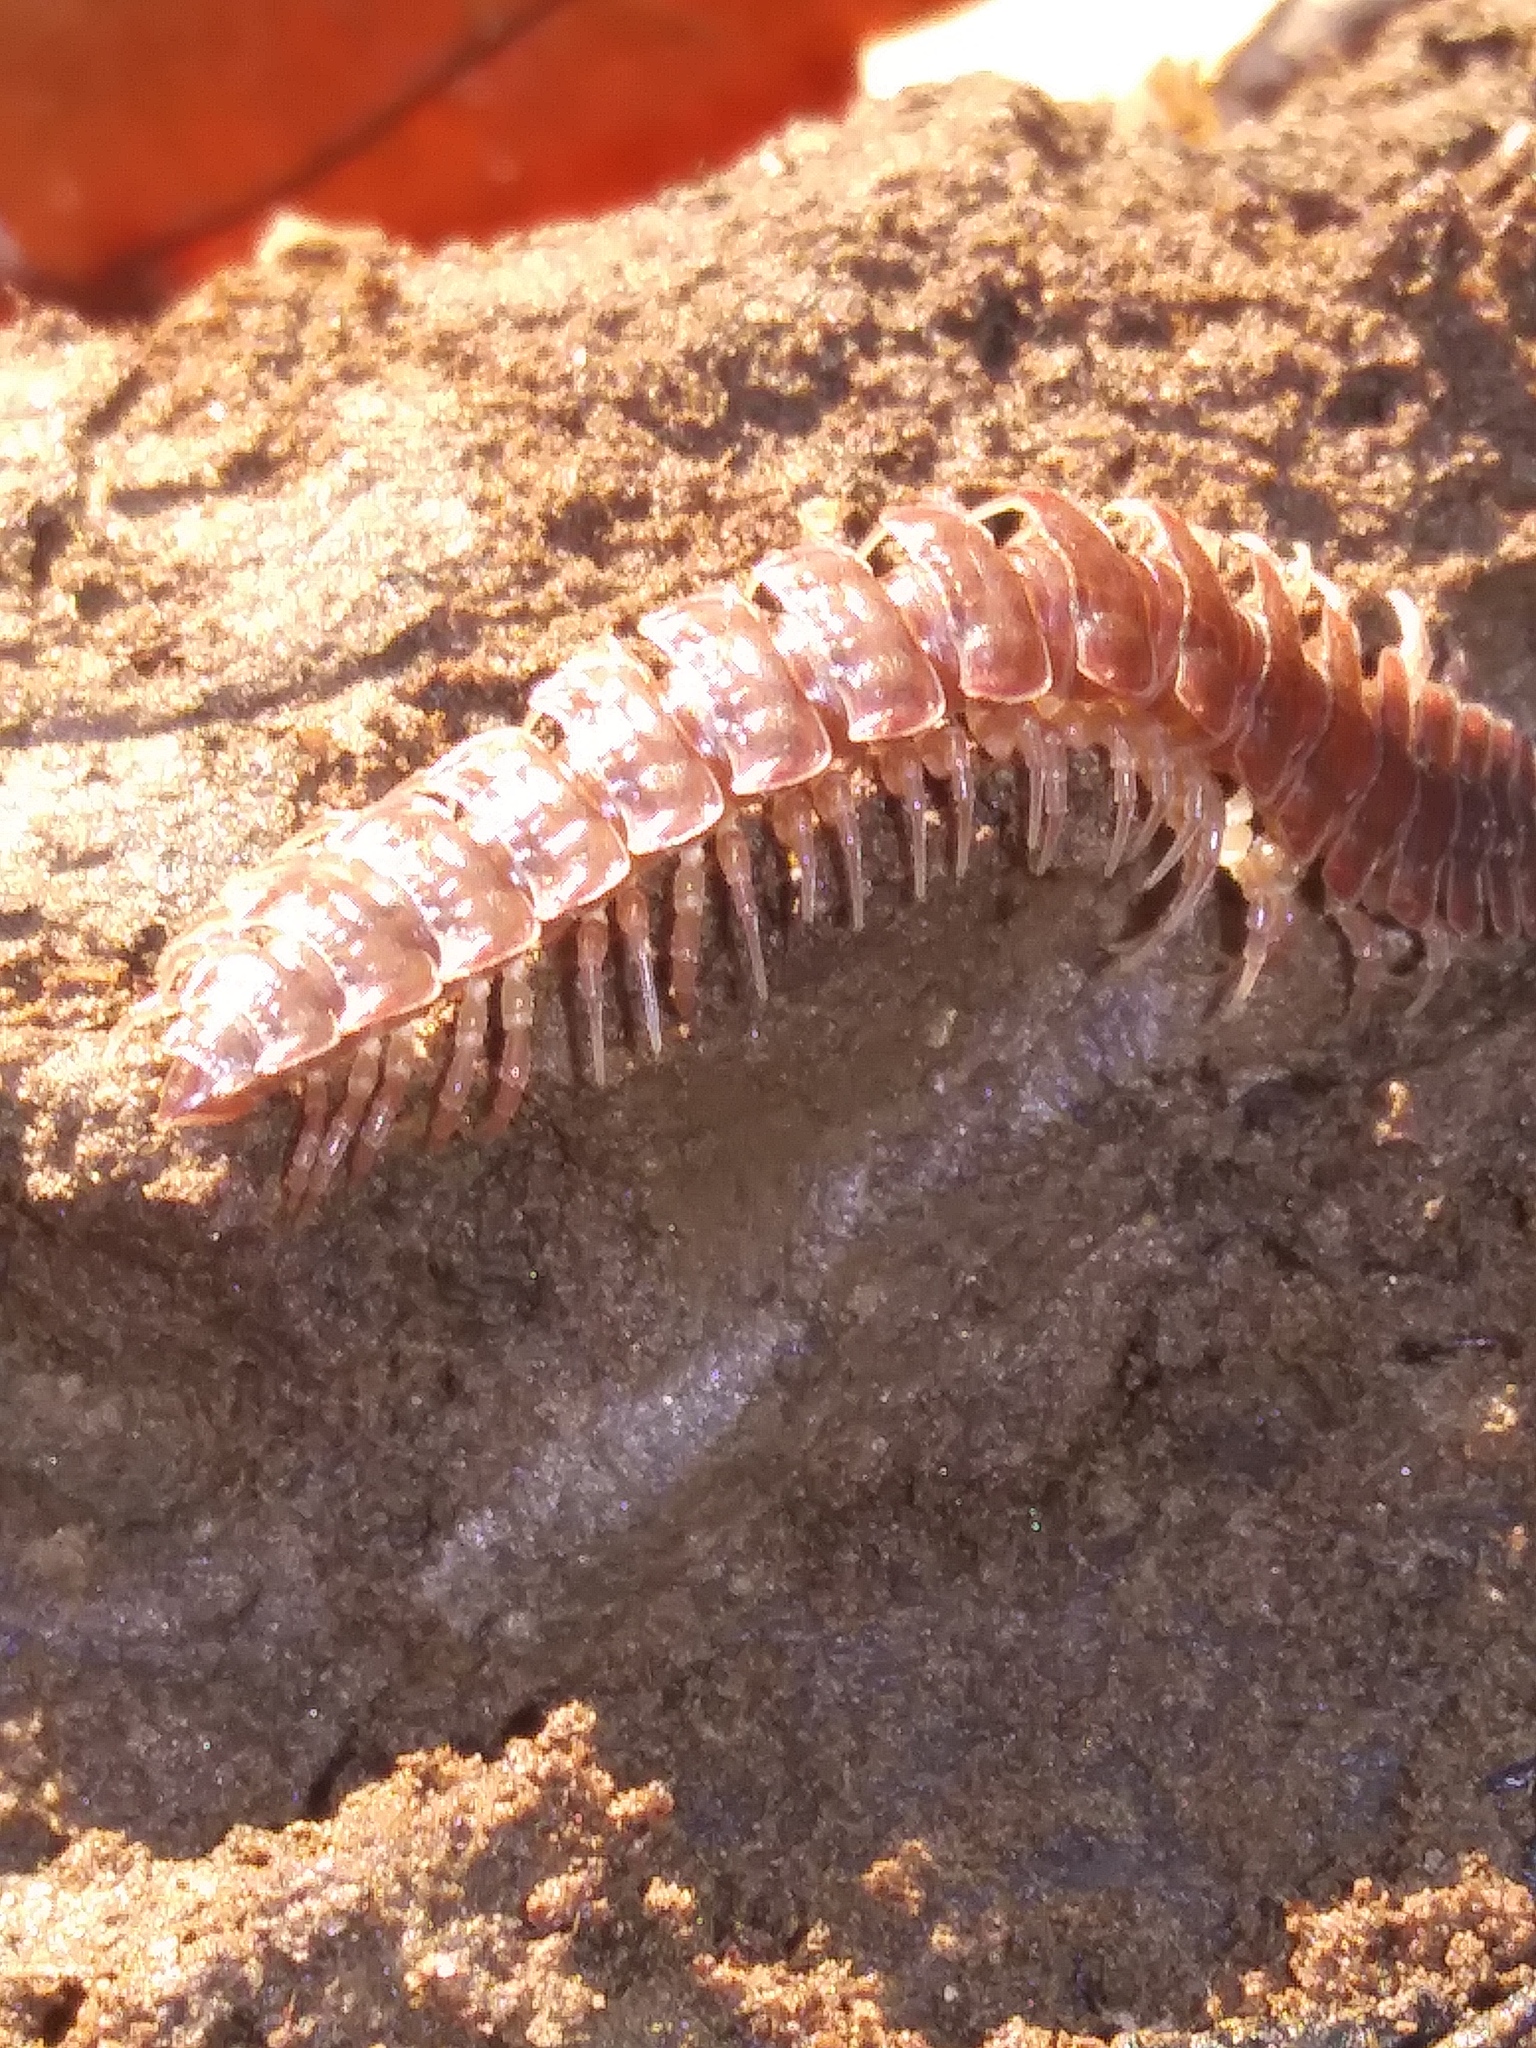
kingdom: Animalia
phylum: Arthropoda
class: Diplopoda
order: Polydesmida
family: Polydesmidae
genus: Pseudopolydesmus
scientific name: Pseudopolydesmus serratus
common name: Common pink flat-back millipede
